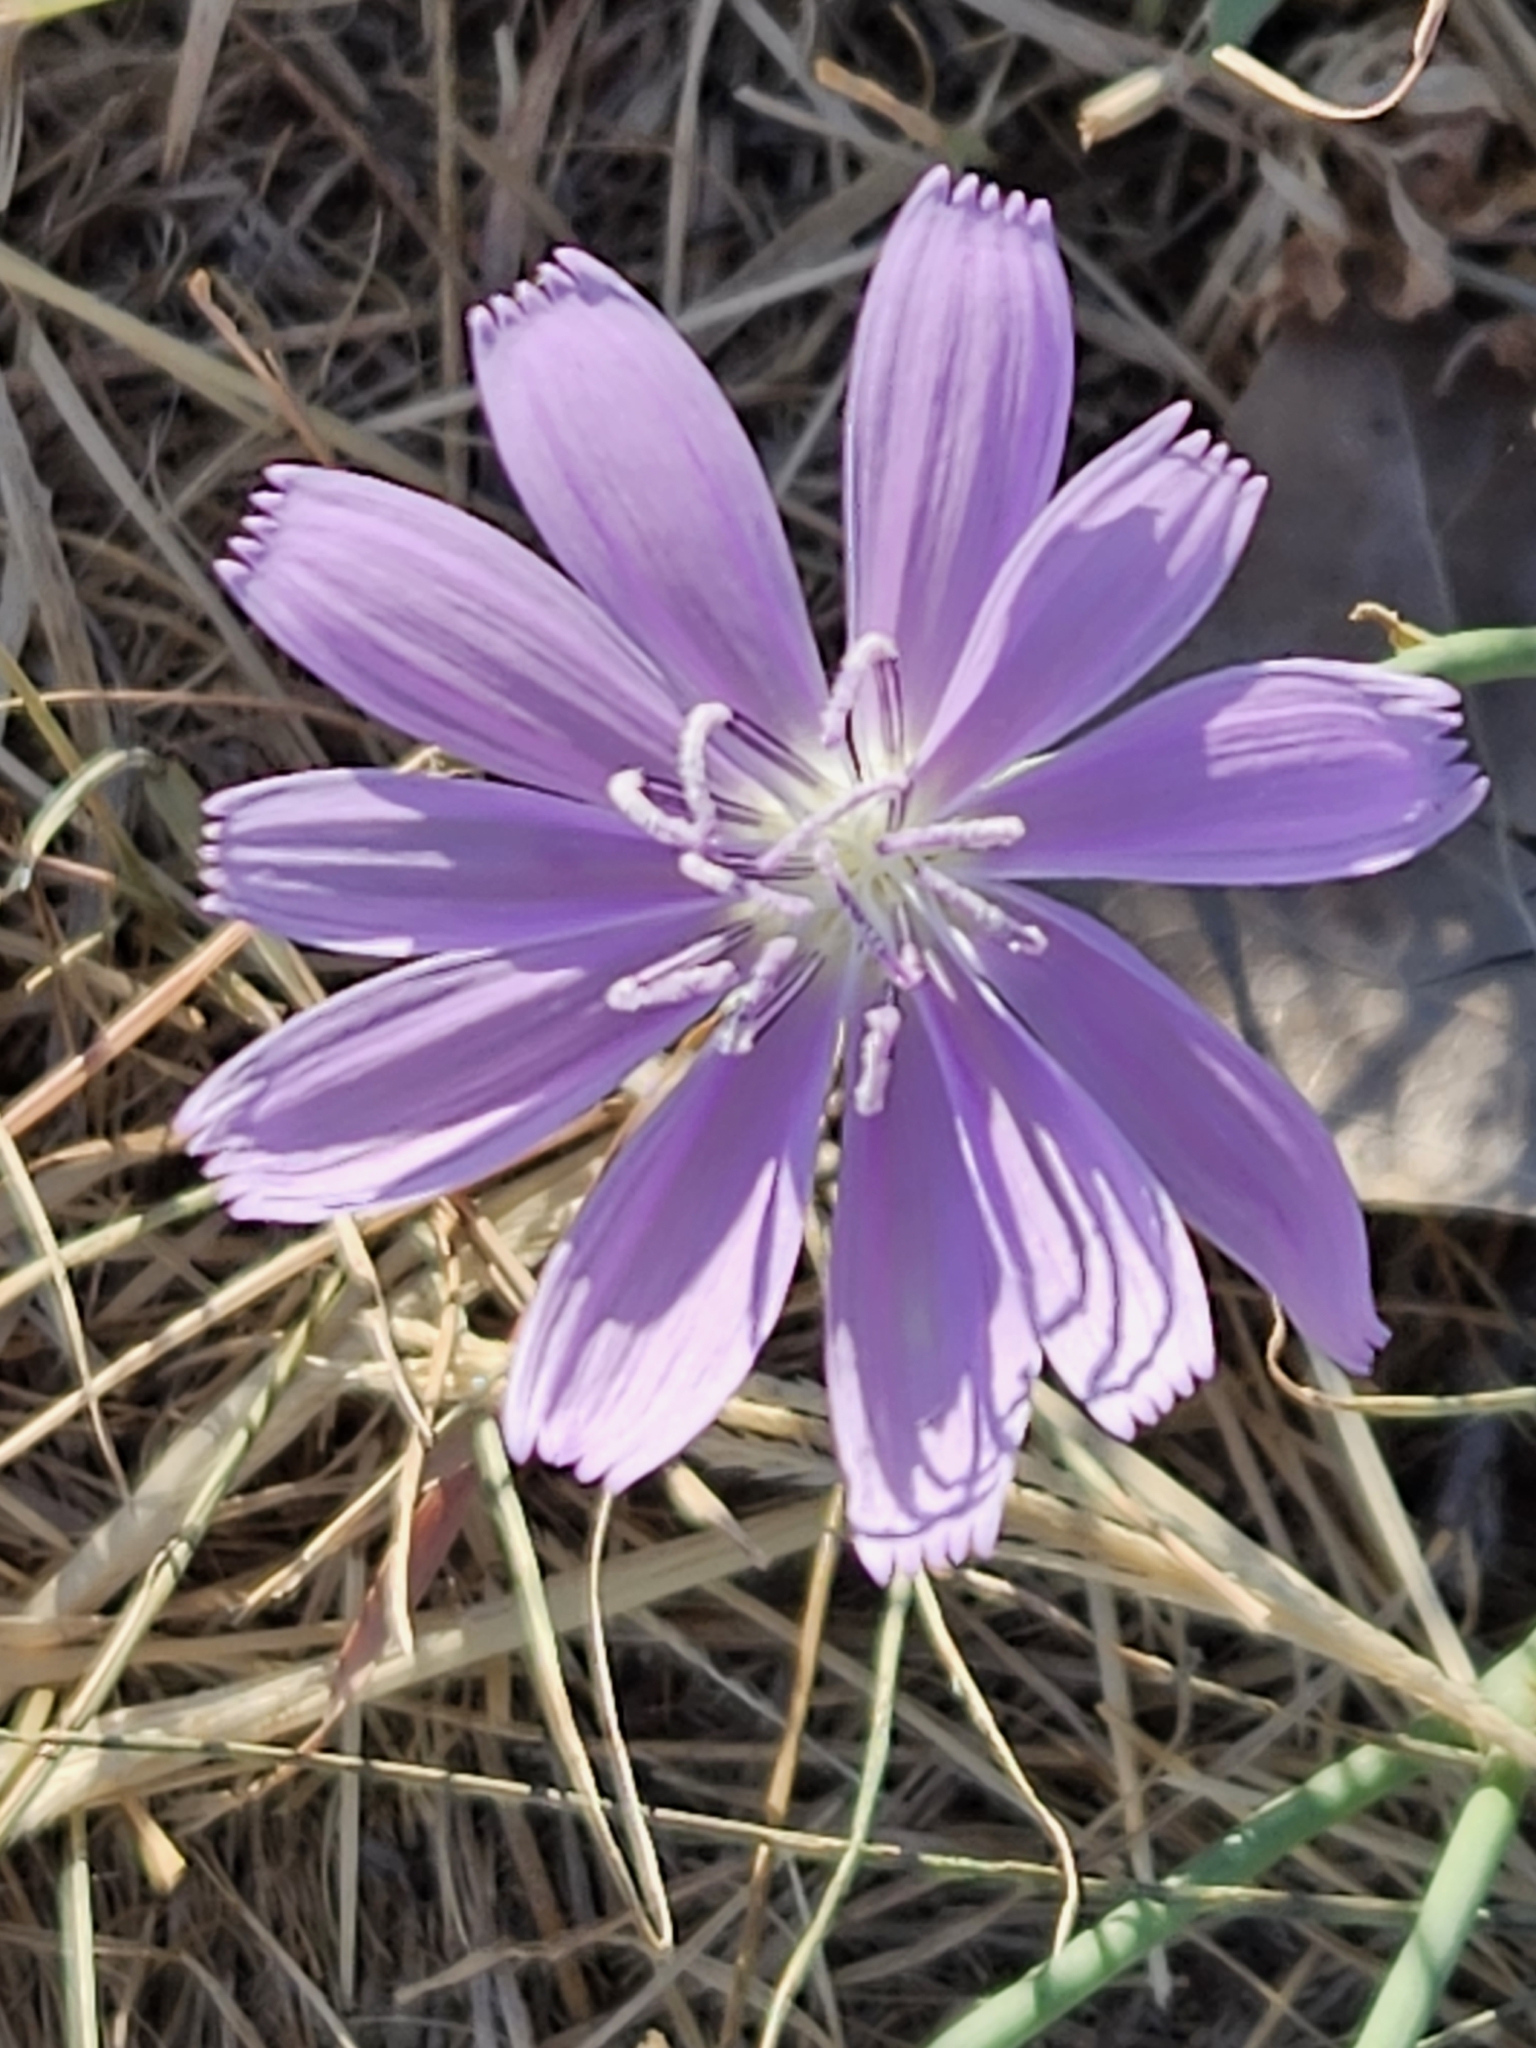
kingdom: Plantae
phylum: Tracheophyta
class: Magnoliopsida
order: Asterales
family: Asteraceae
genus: Lygodesmia
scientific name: Lygodesmia texana
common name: Texas skeleton-plant
